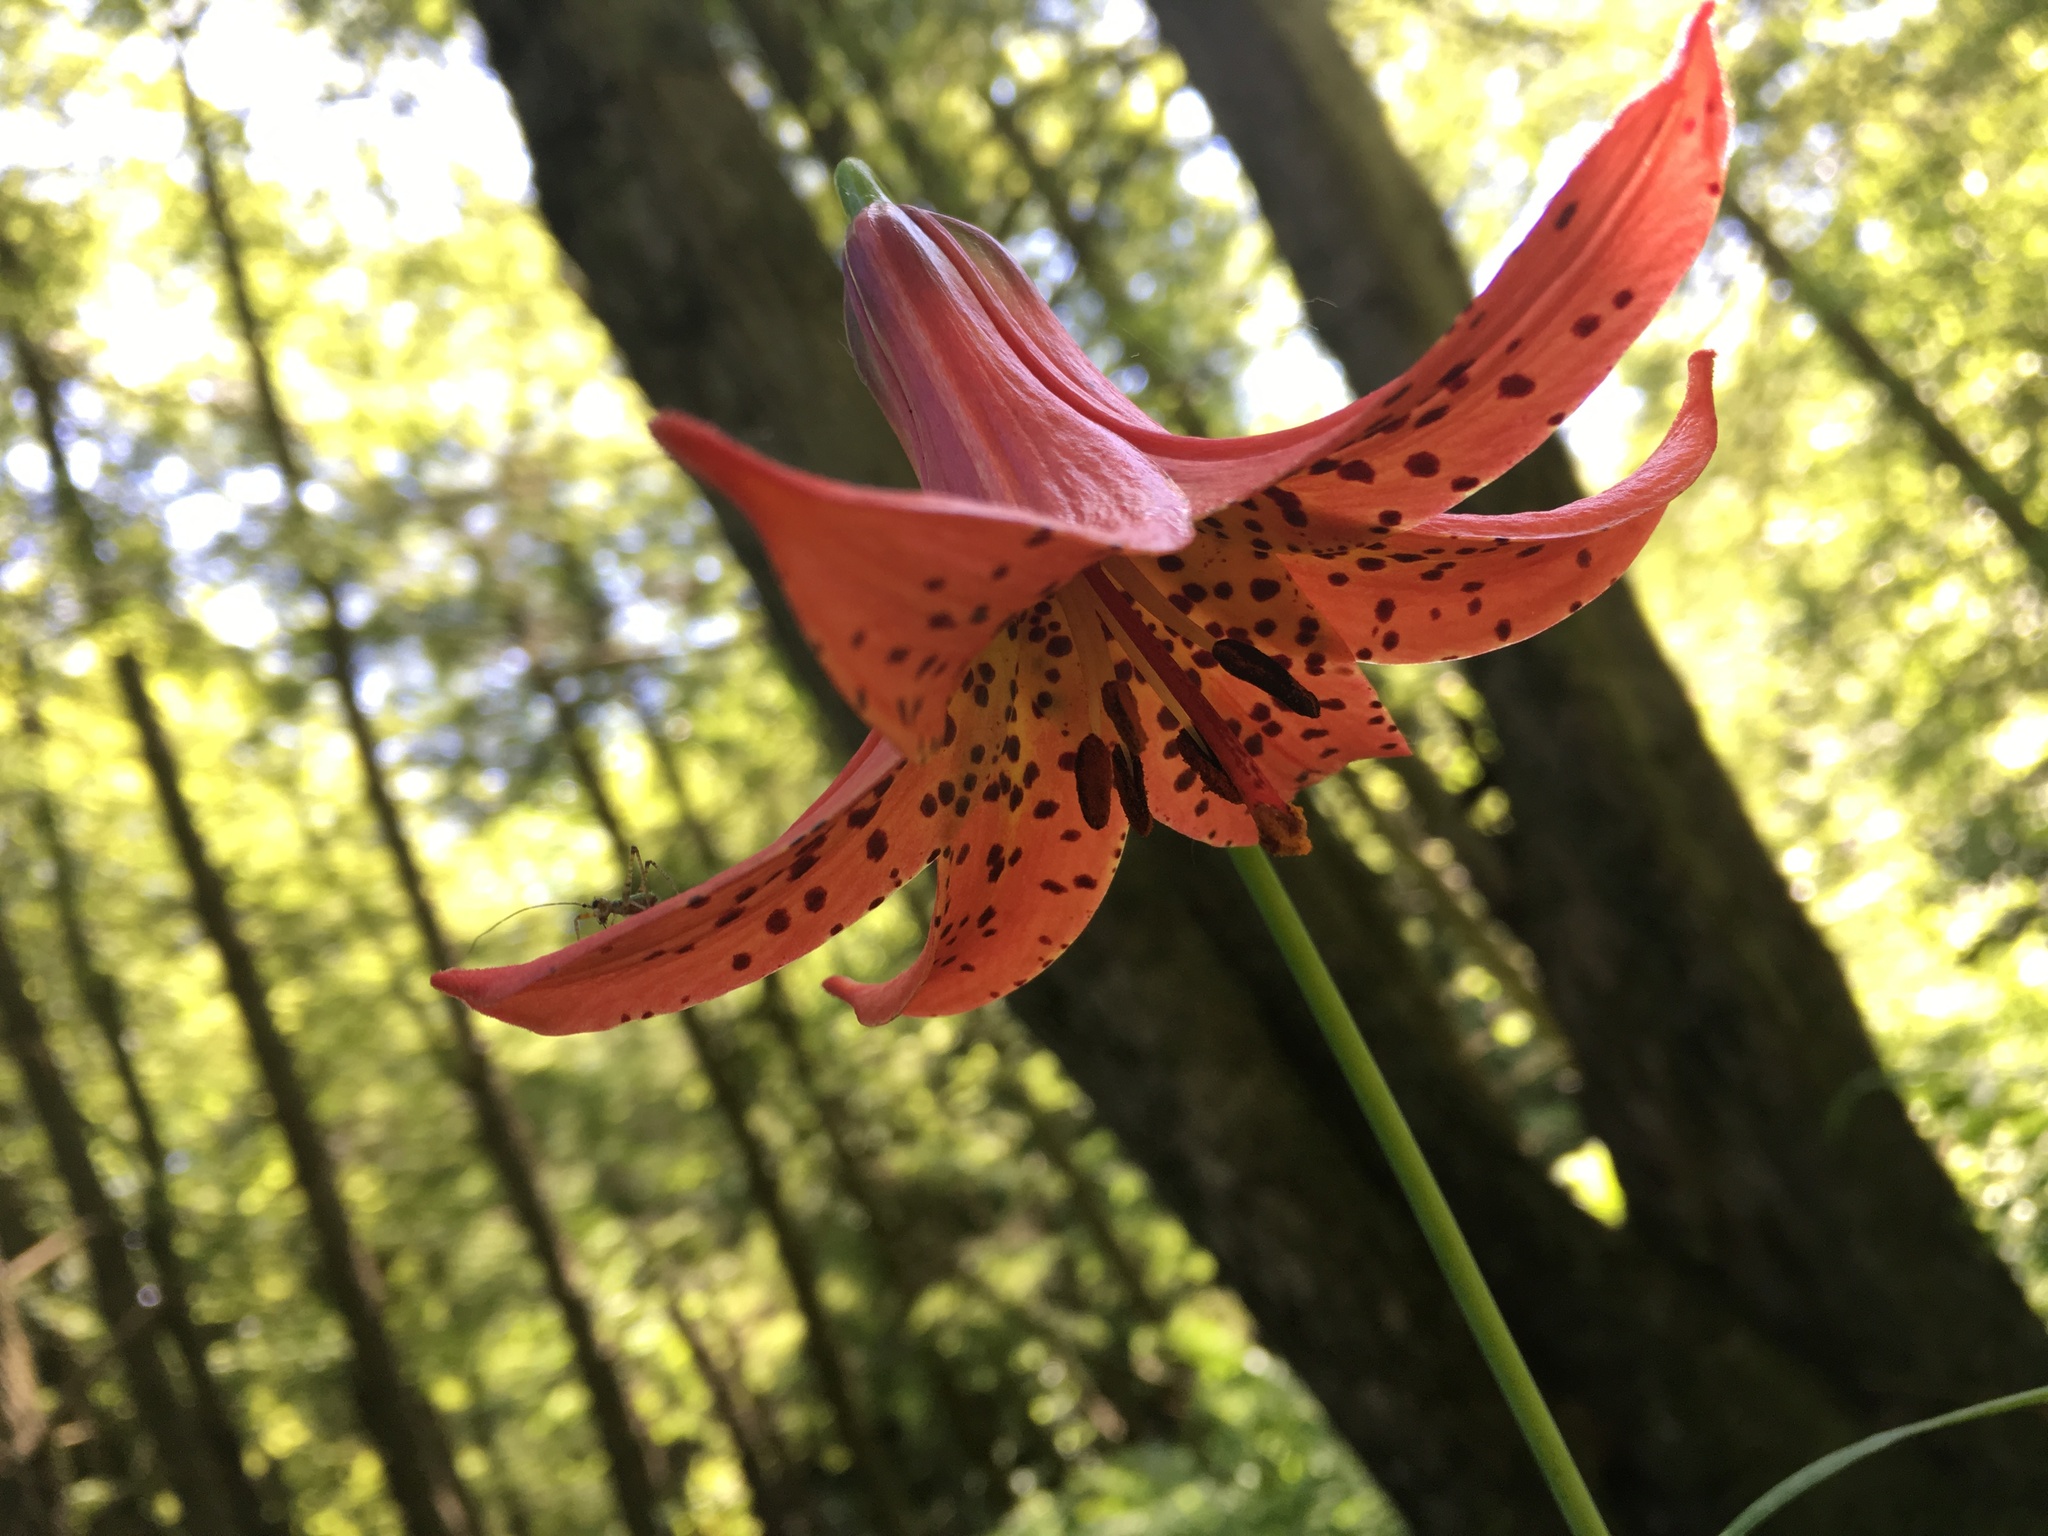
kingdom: Plantae
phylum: Tracheophyta
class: Liliopsida
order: Liliales
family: Liliaceae
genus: Lilium
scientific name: Lilium canadense
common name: Canada lily
